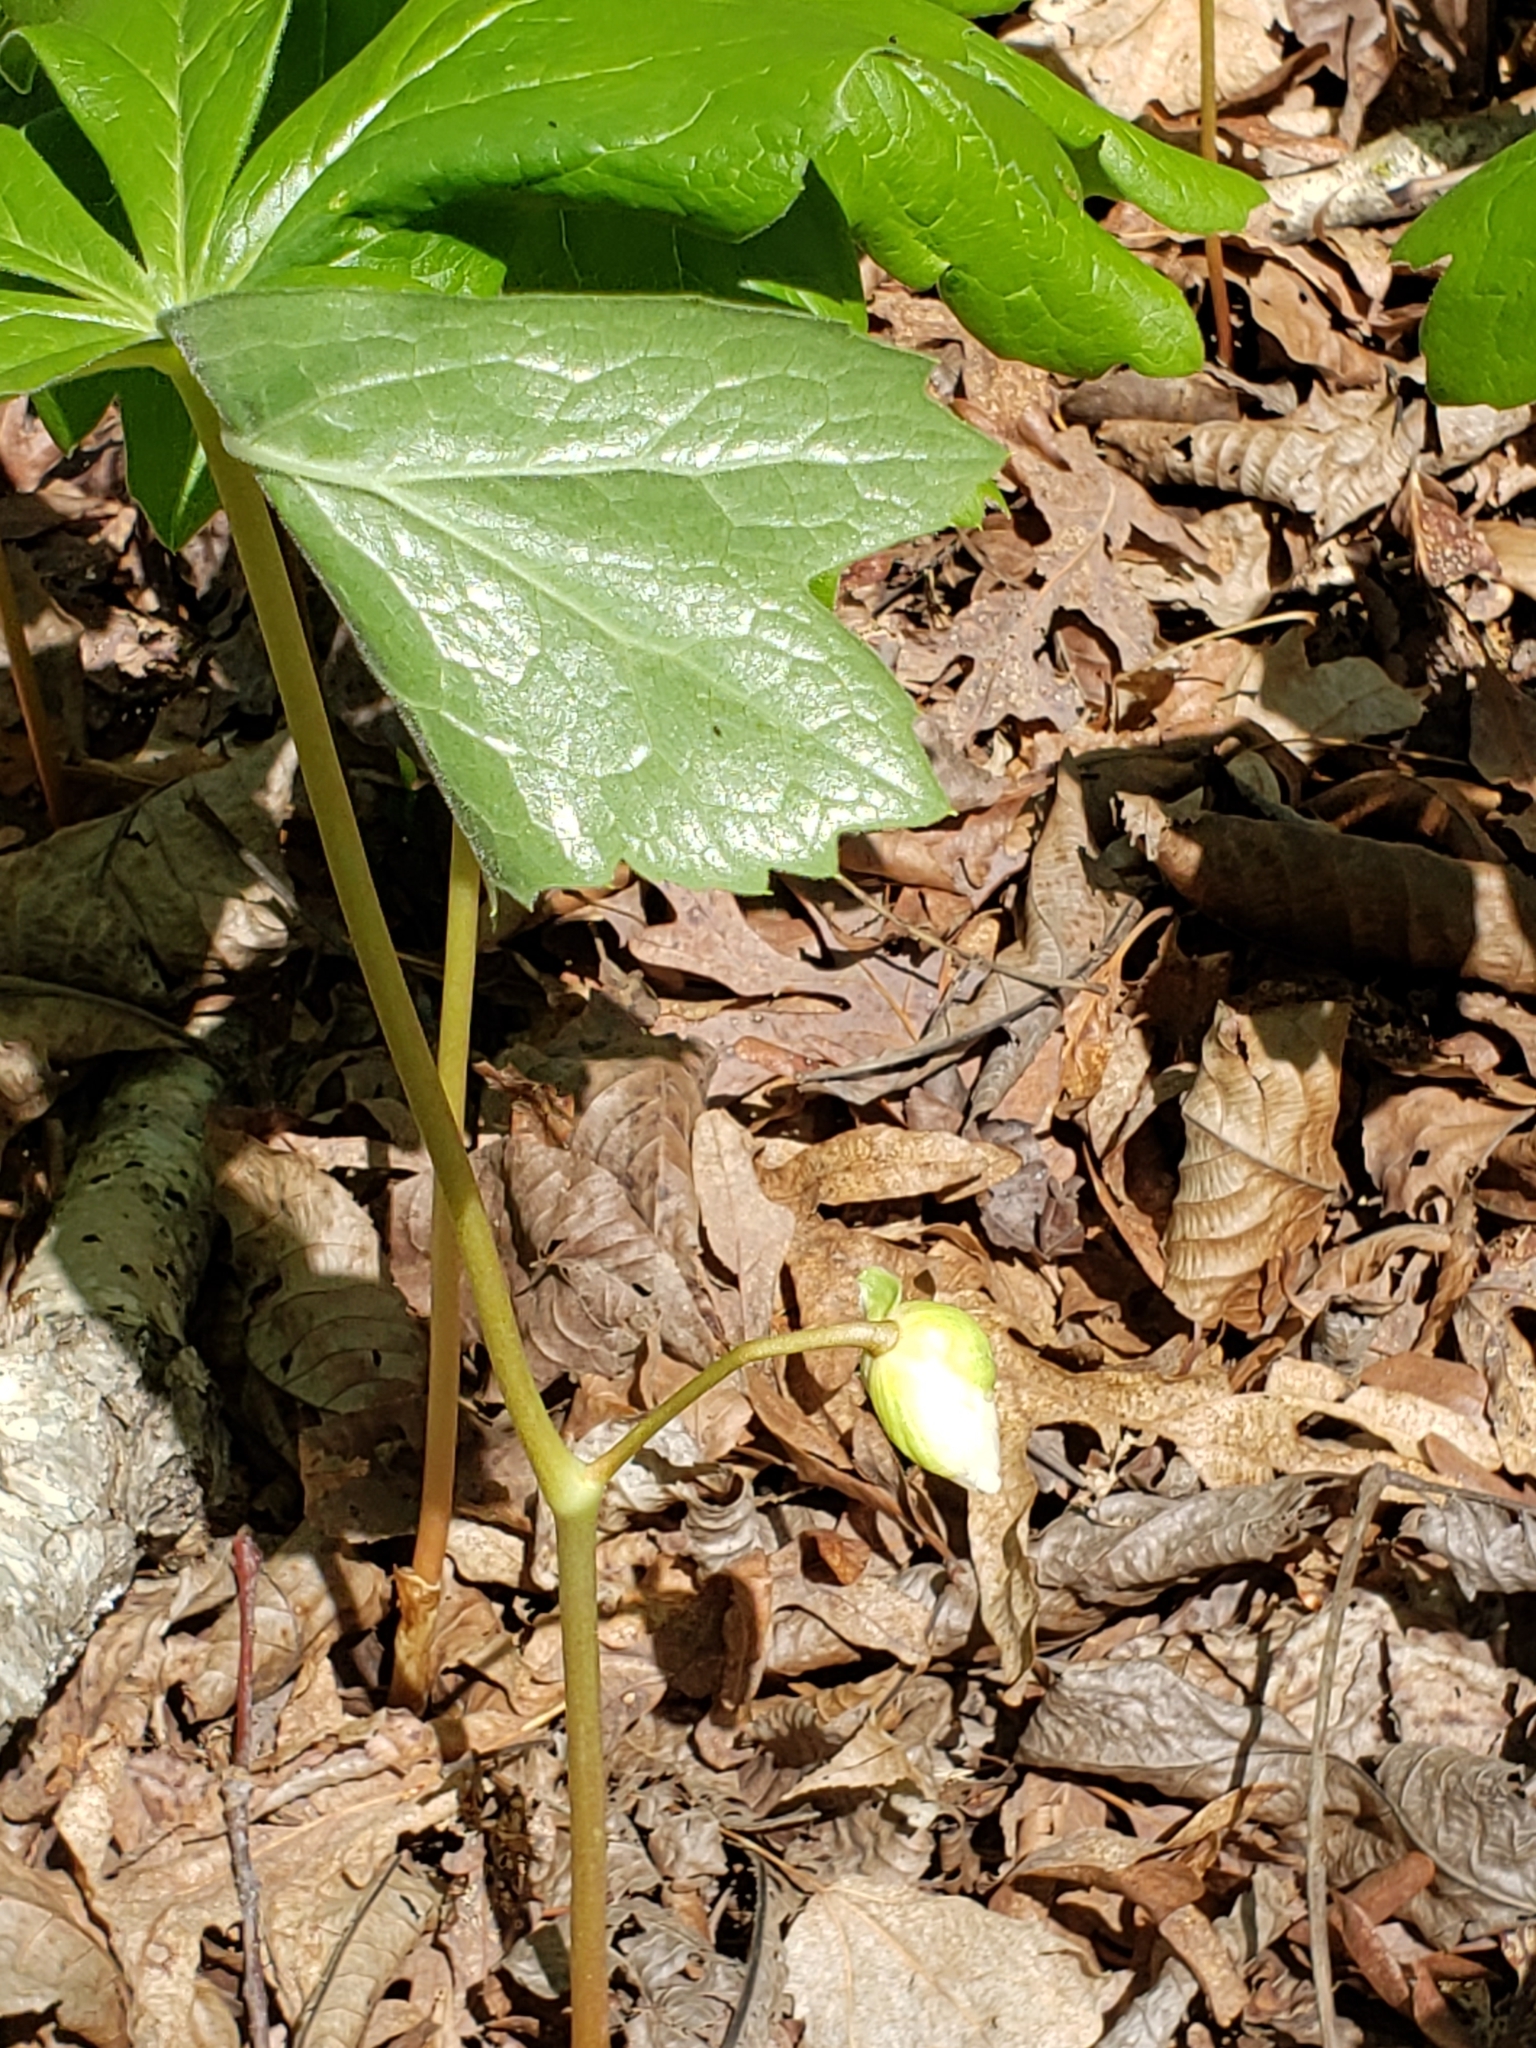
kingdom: Plantae
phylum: Tracheophyta
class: Magnoliopsida
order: Ranunculales
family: Berberidaceae
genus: Podophyllum
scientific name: Podophyllum peltatum
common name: Wild mandrake
